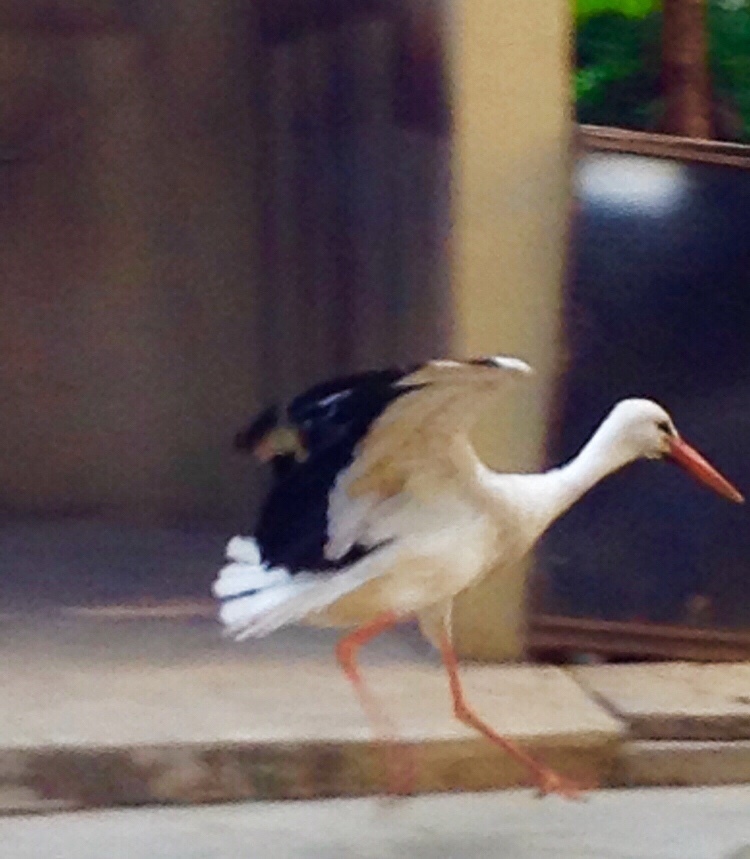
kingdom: Animalia
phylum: Chordata
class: Aves
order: Ciconiiformes
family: Ciconiidae
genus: Ciconia
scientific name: Ciconia ciconia
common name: White stork
